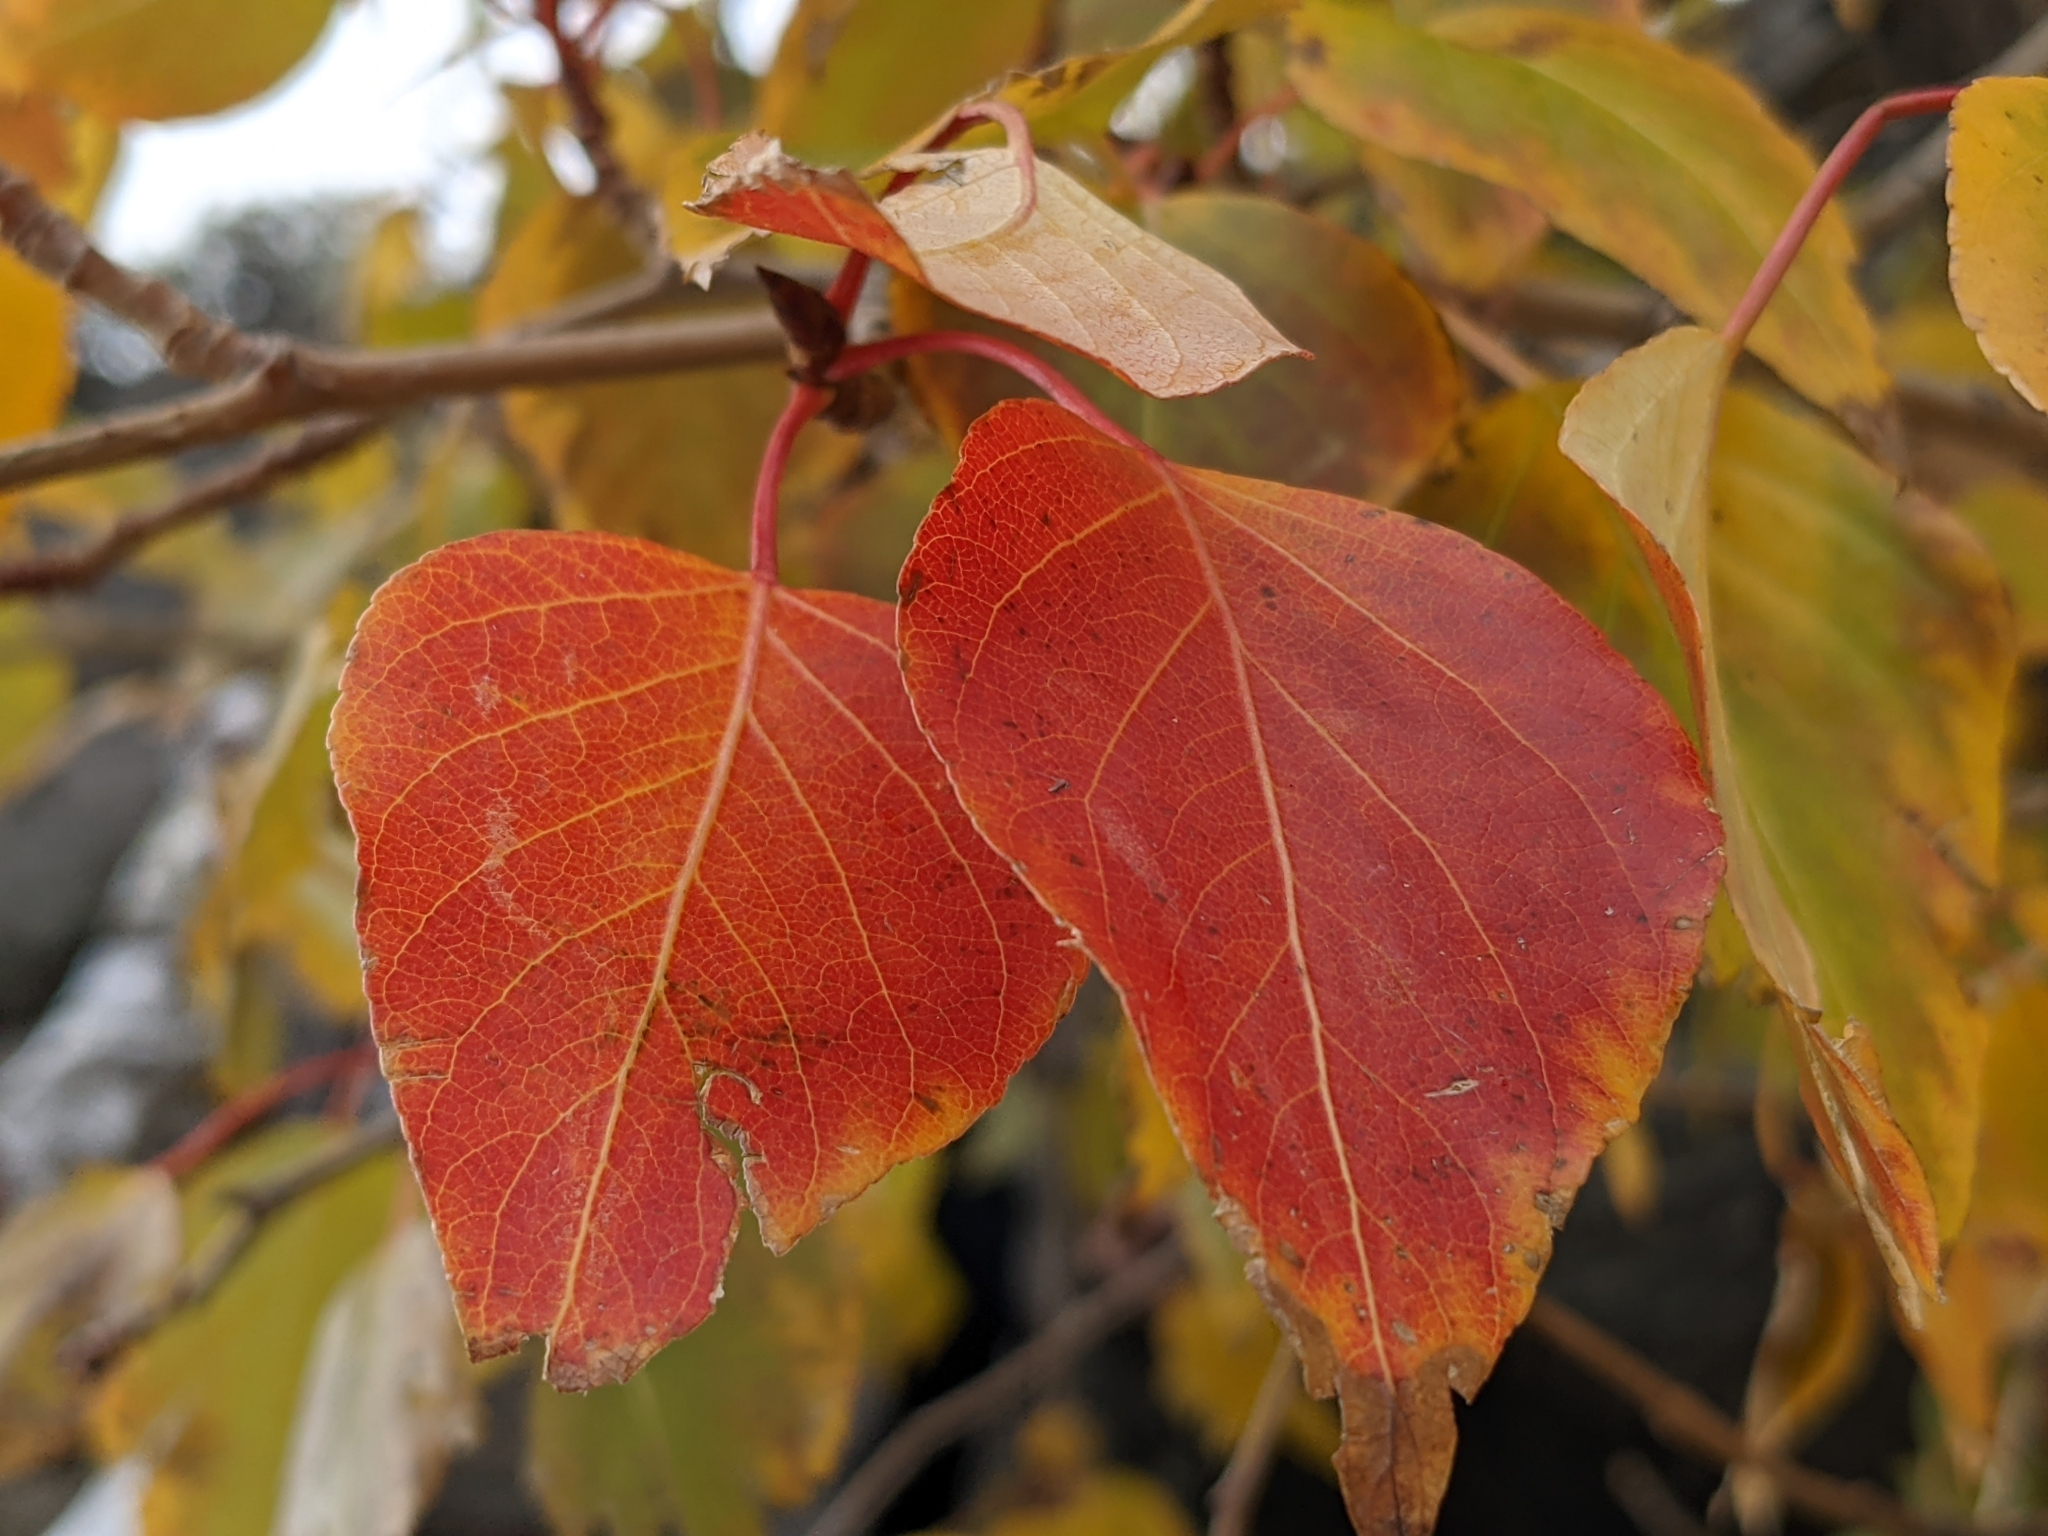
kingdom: Plantae
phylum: Tracheophyta
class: Magnoliopsida
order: Malpighiales
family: Salicaceae
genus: Populus
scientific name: Populus trichocarpa
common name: Black cottonwood
